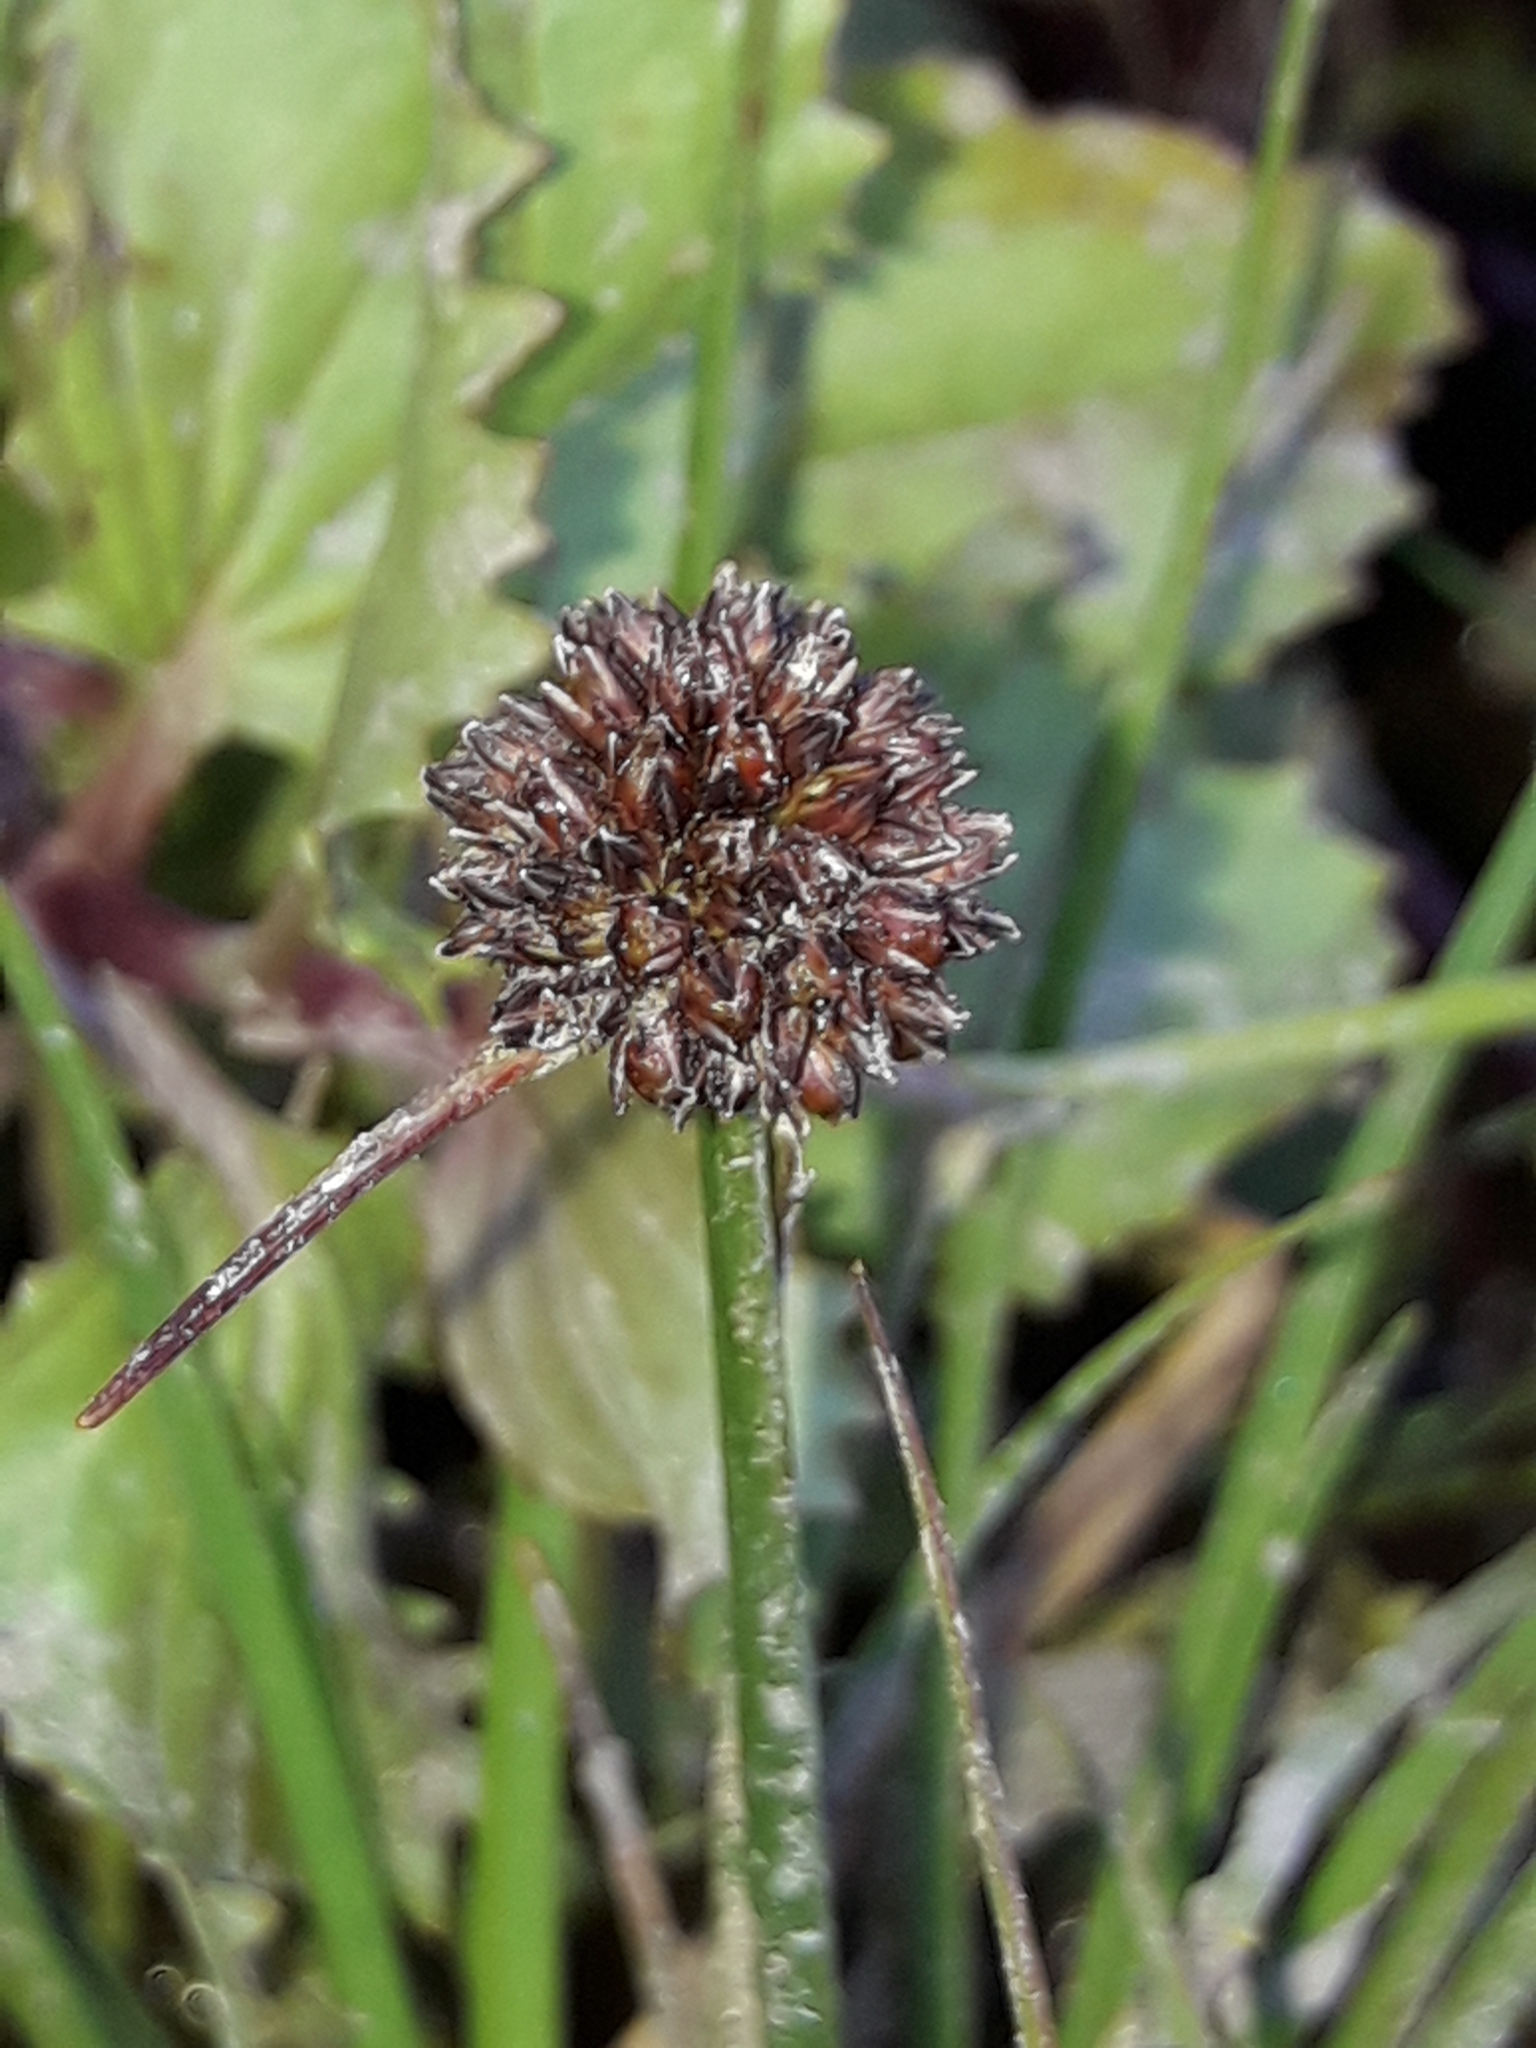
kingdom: Plantae
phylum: Tracheophyta
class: Liliopsida
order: Poales
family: Juncaceae
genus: Juncus
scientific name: Juncus caespiticius
